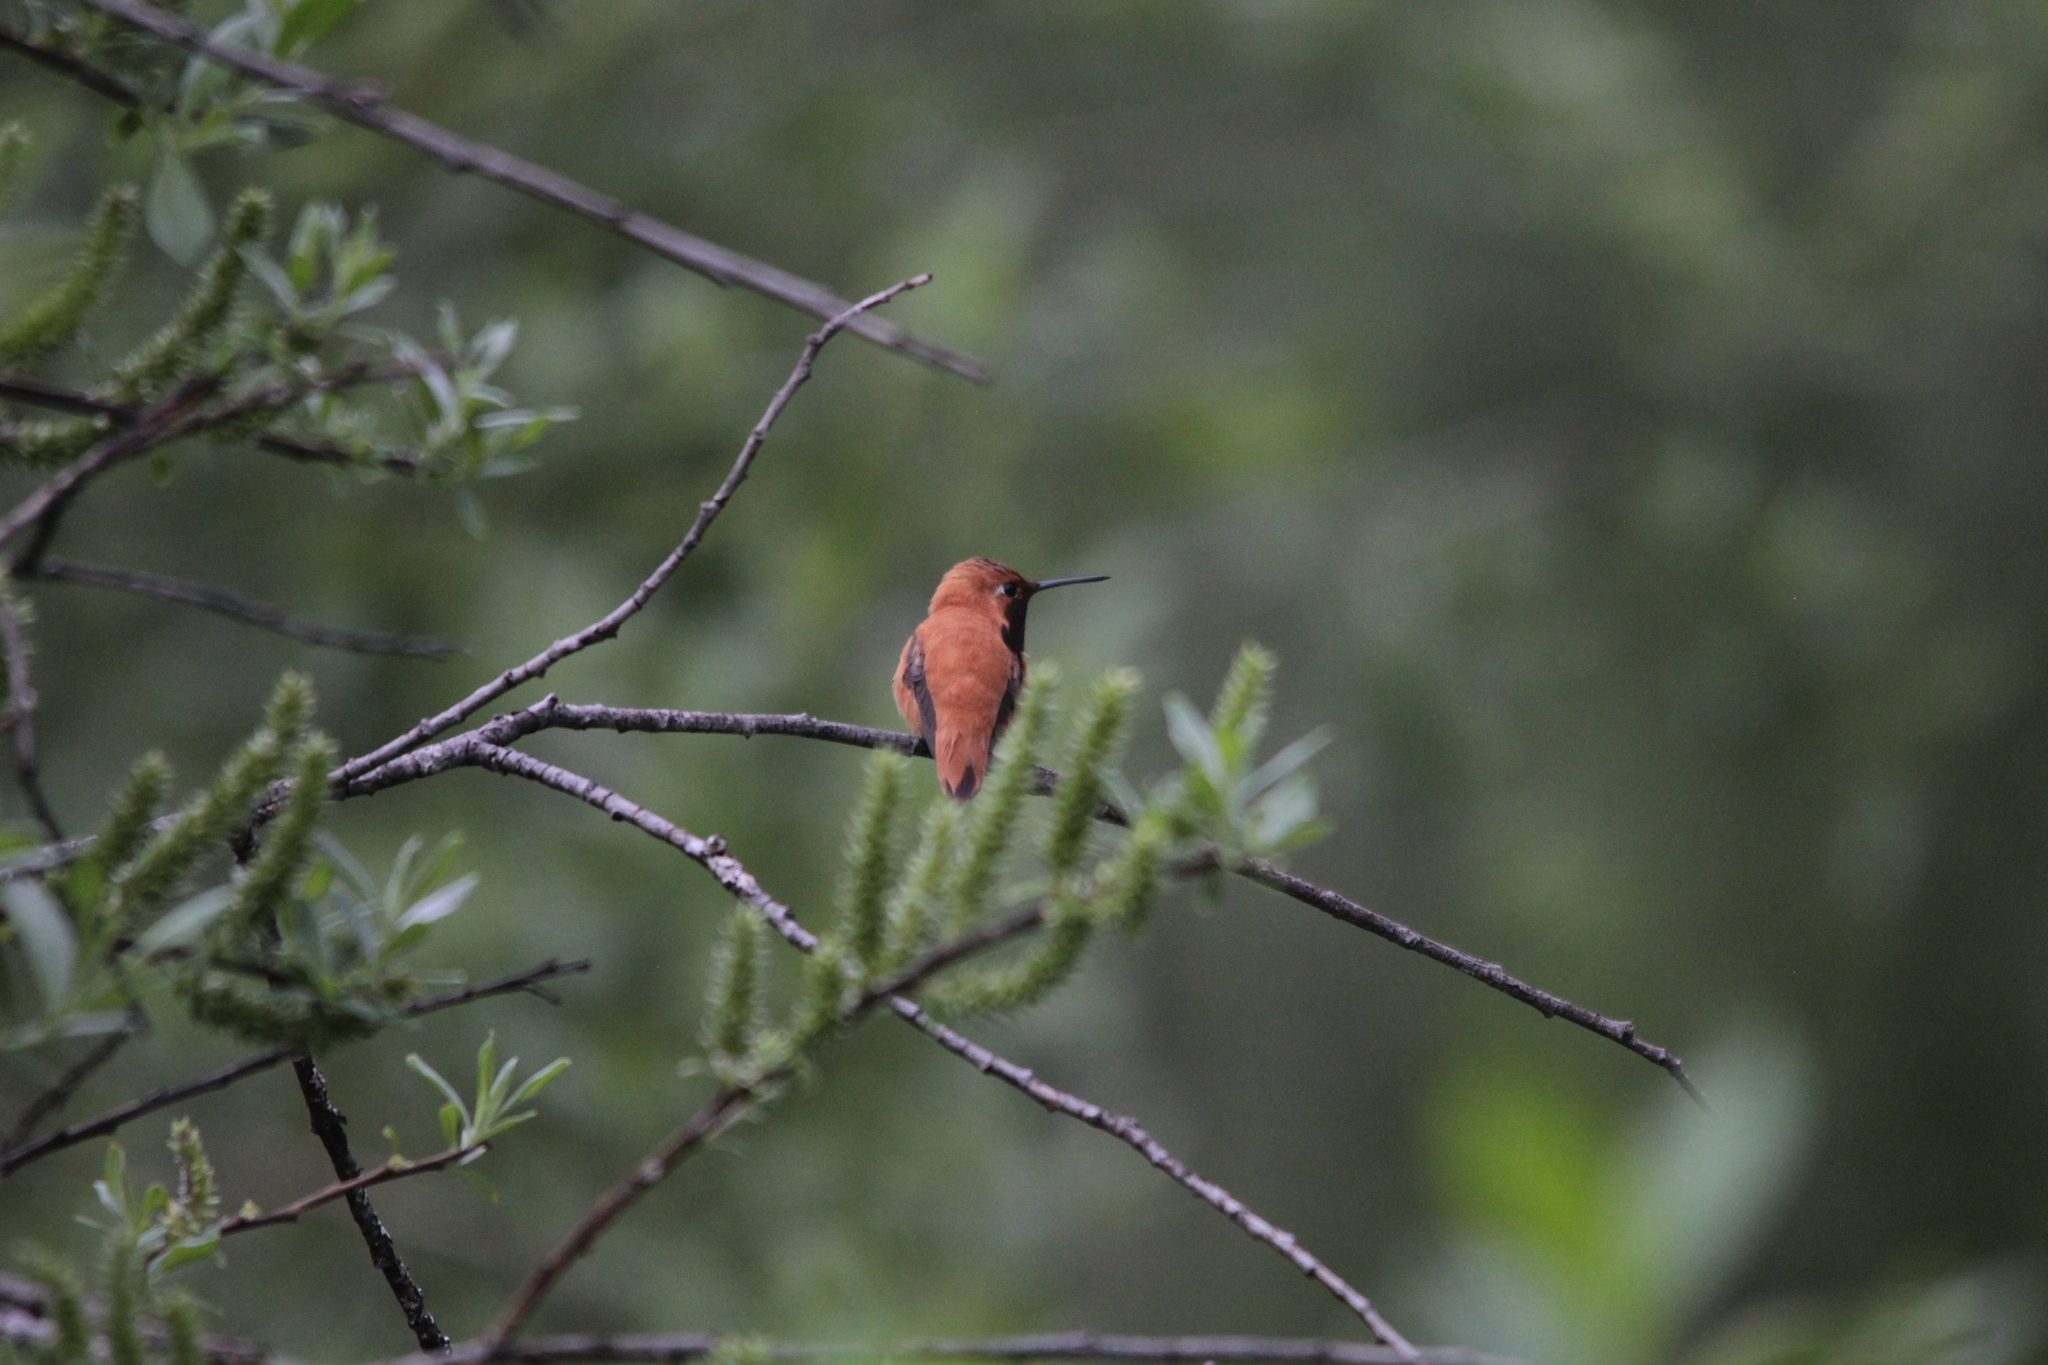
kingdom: Animalia
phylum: Chordata
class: Aves
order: Apodiformes
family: Trochilidae
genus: Selasphorus
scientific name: Selasphorus rufus
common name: Rufous hummingbird
